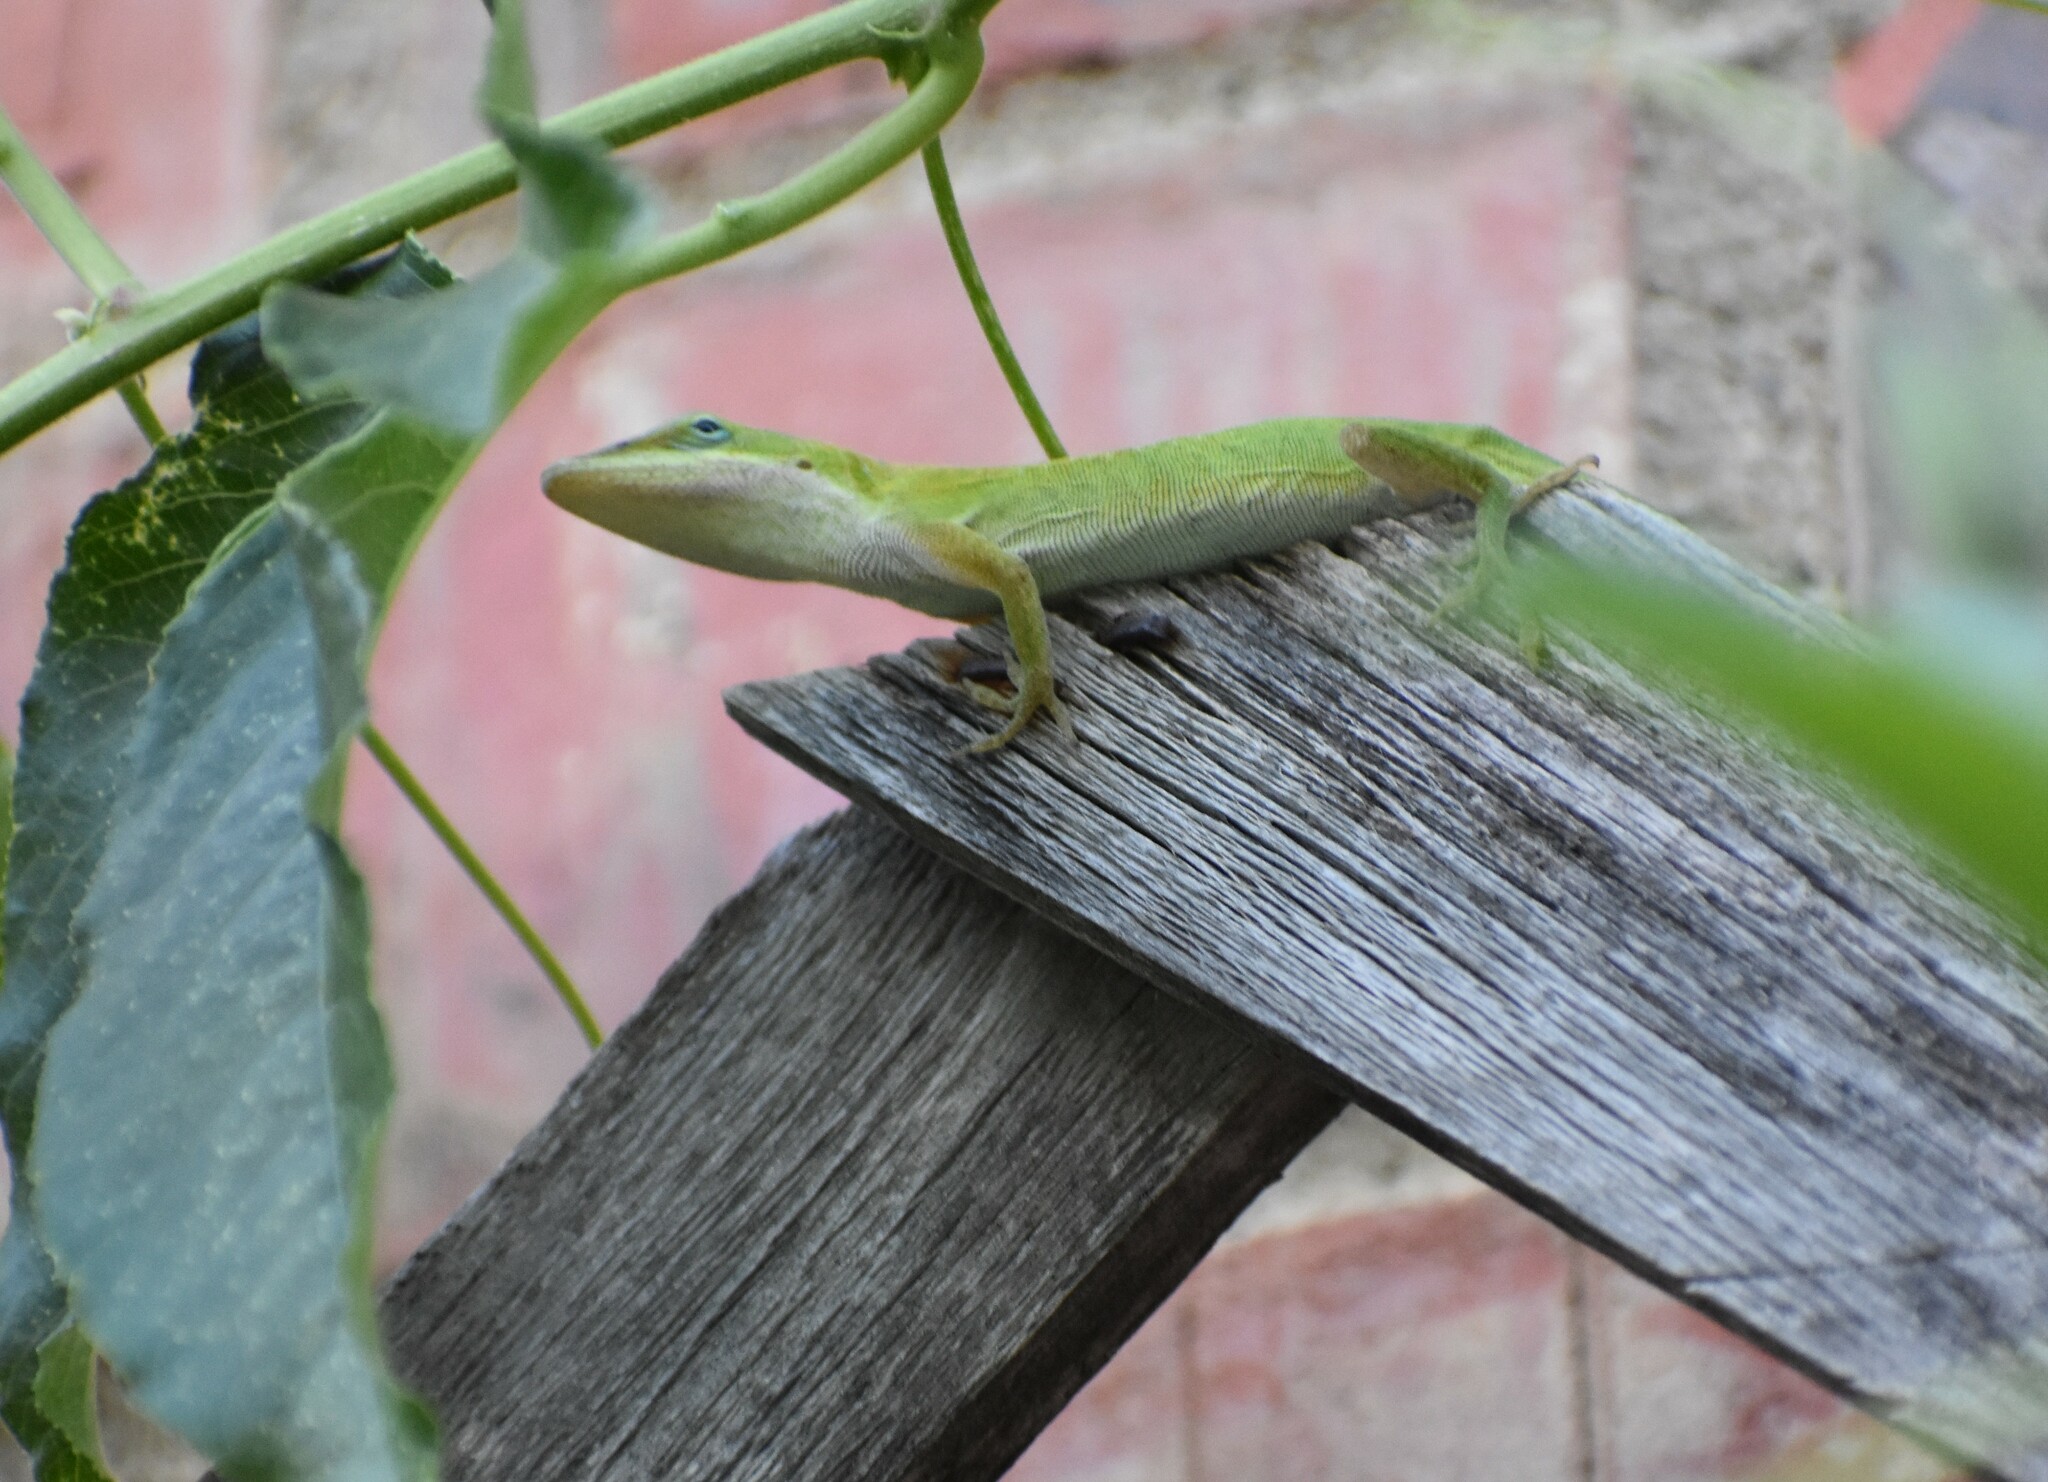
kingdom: Animalia
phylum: Chordata
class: Squamata
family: Dactyloidae
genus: Anolis
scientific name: Anolis carolinensis
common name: Green anole
